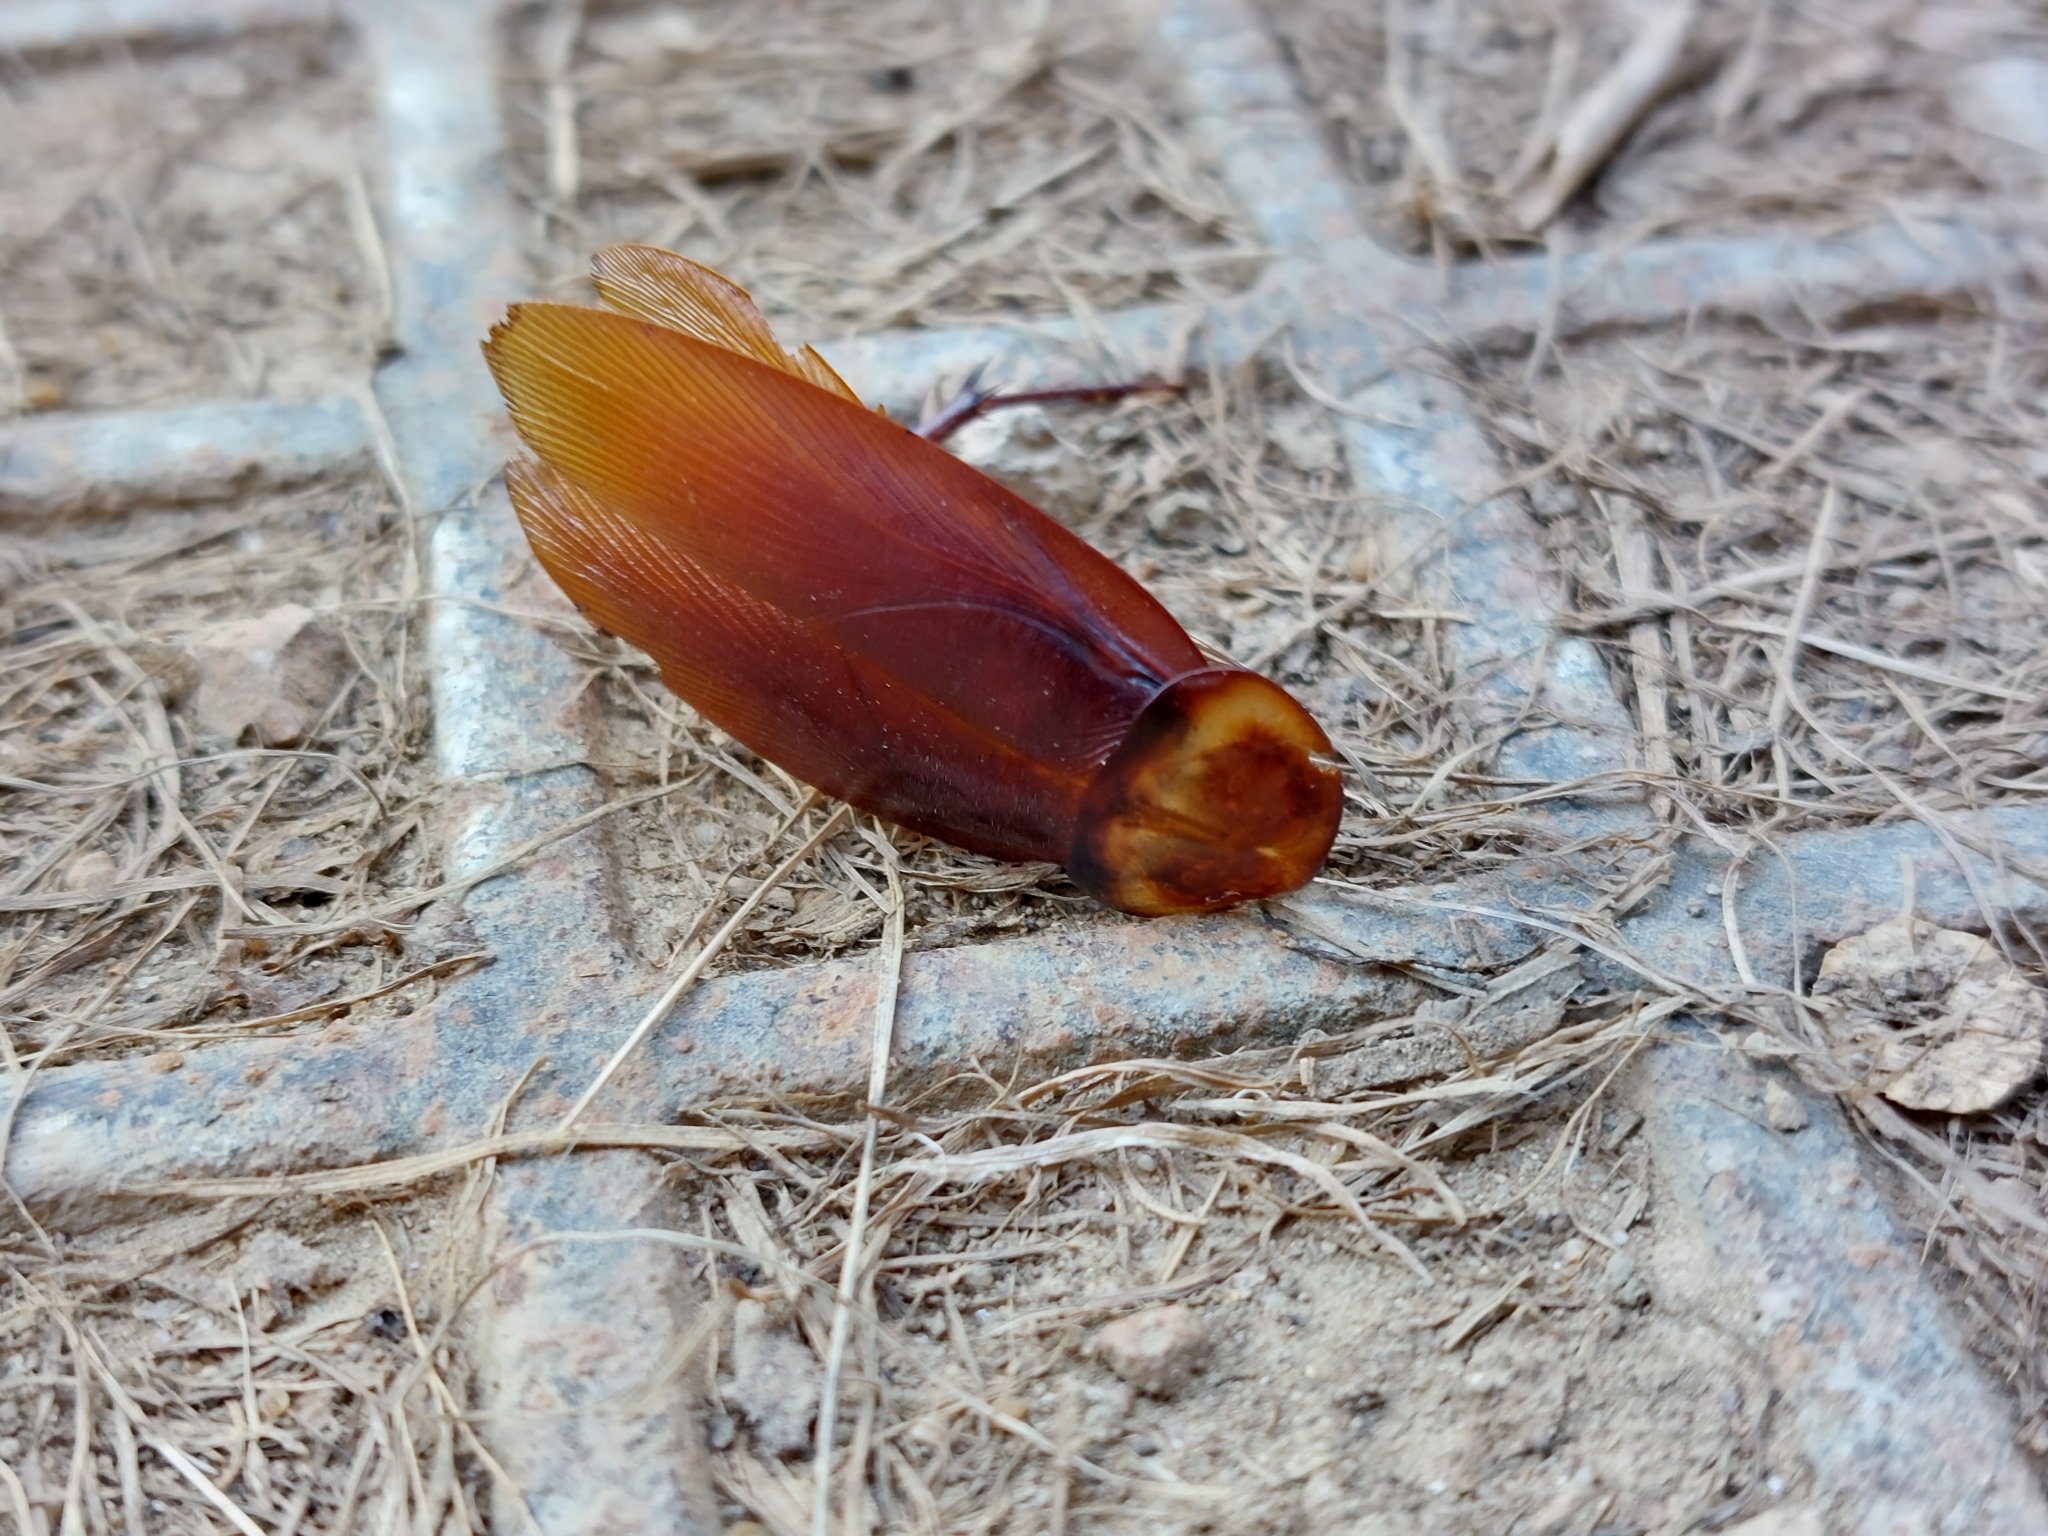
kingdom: Animalia
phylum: Arthropoda
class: Insecta
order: Blattodea
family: Blattidae
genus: Periplaneta
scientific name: Periplaneta americana
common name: American cockroach
